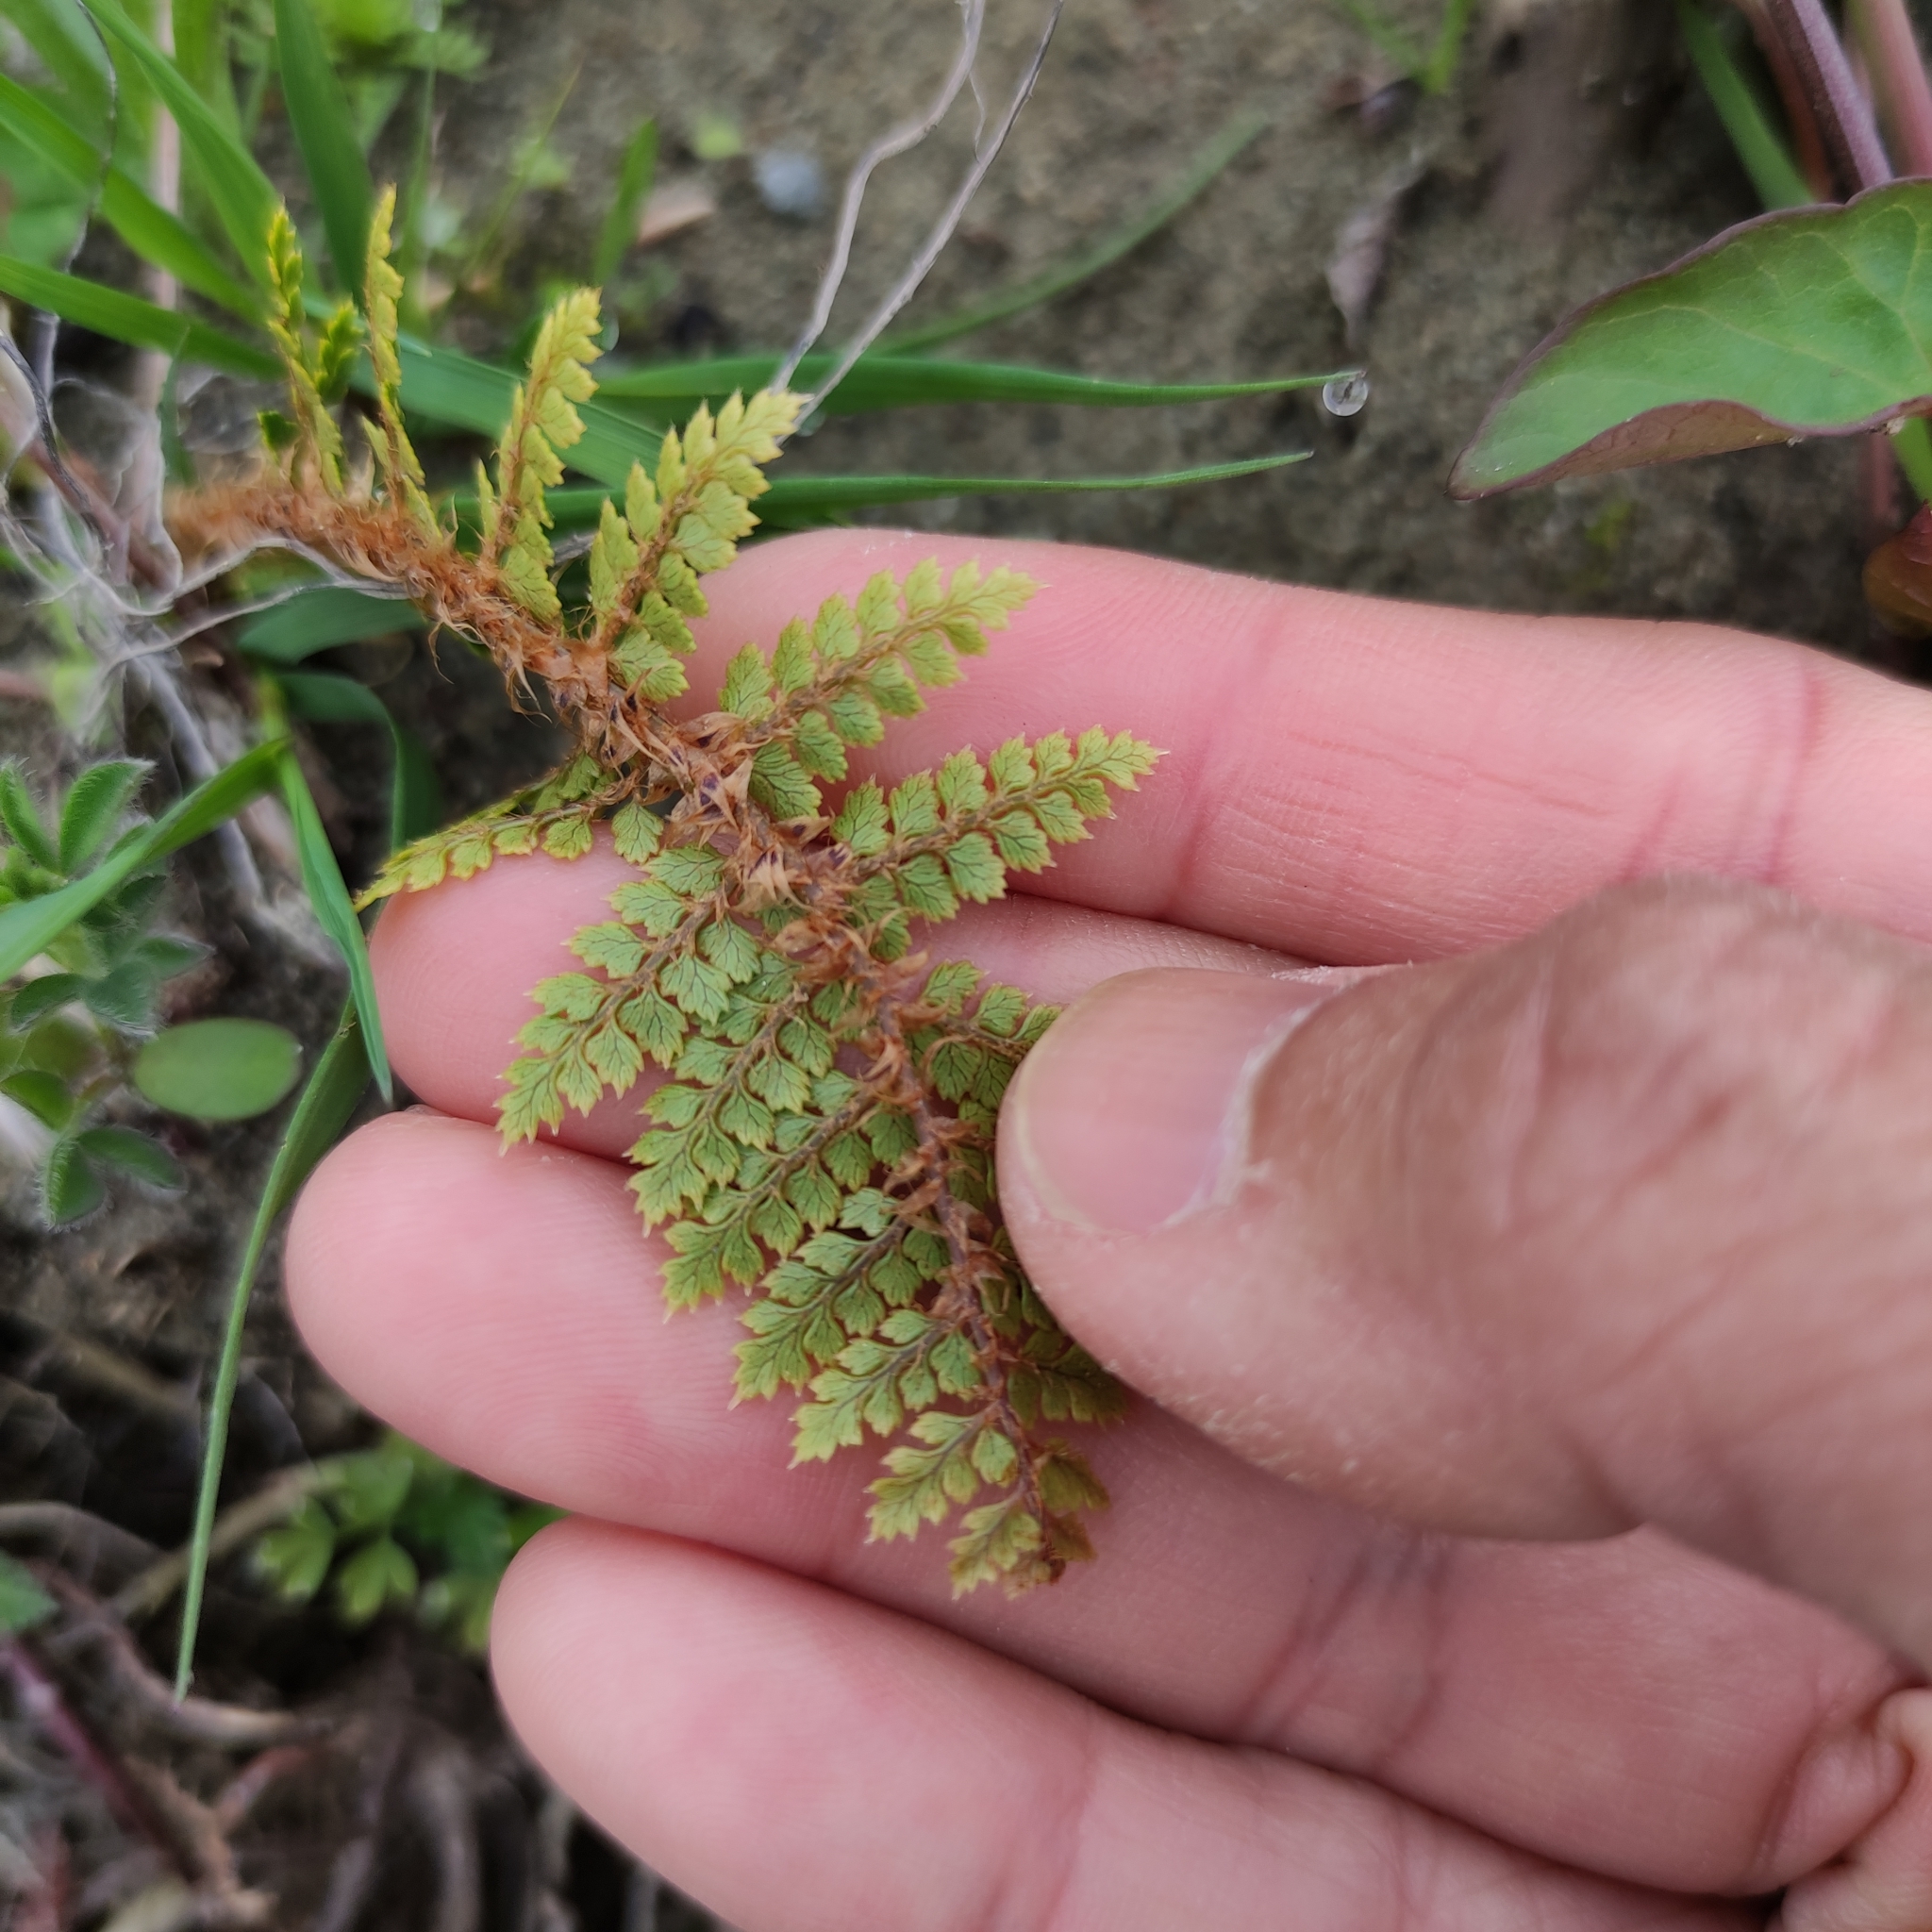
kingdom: Plantae
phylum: Tracheophyta
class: Polypodiopsida
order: Polypodiales
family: Dryopteridaceae
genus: Polystichum
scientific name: Polystichum vestitum
